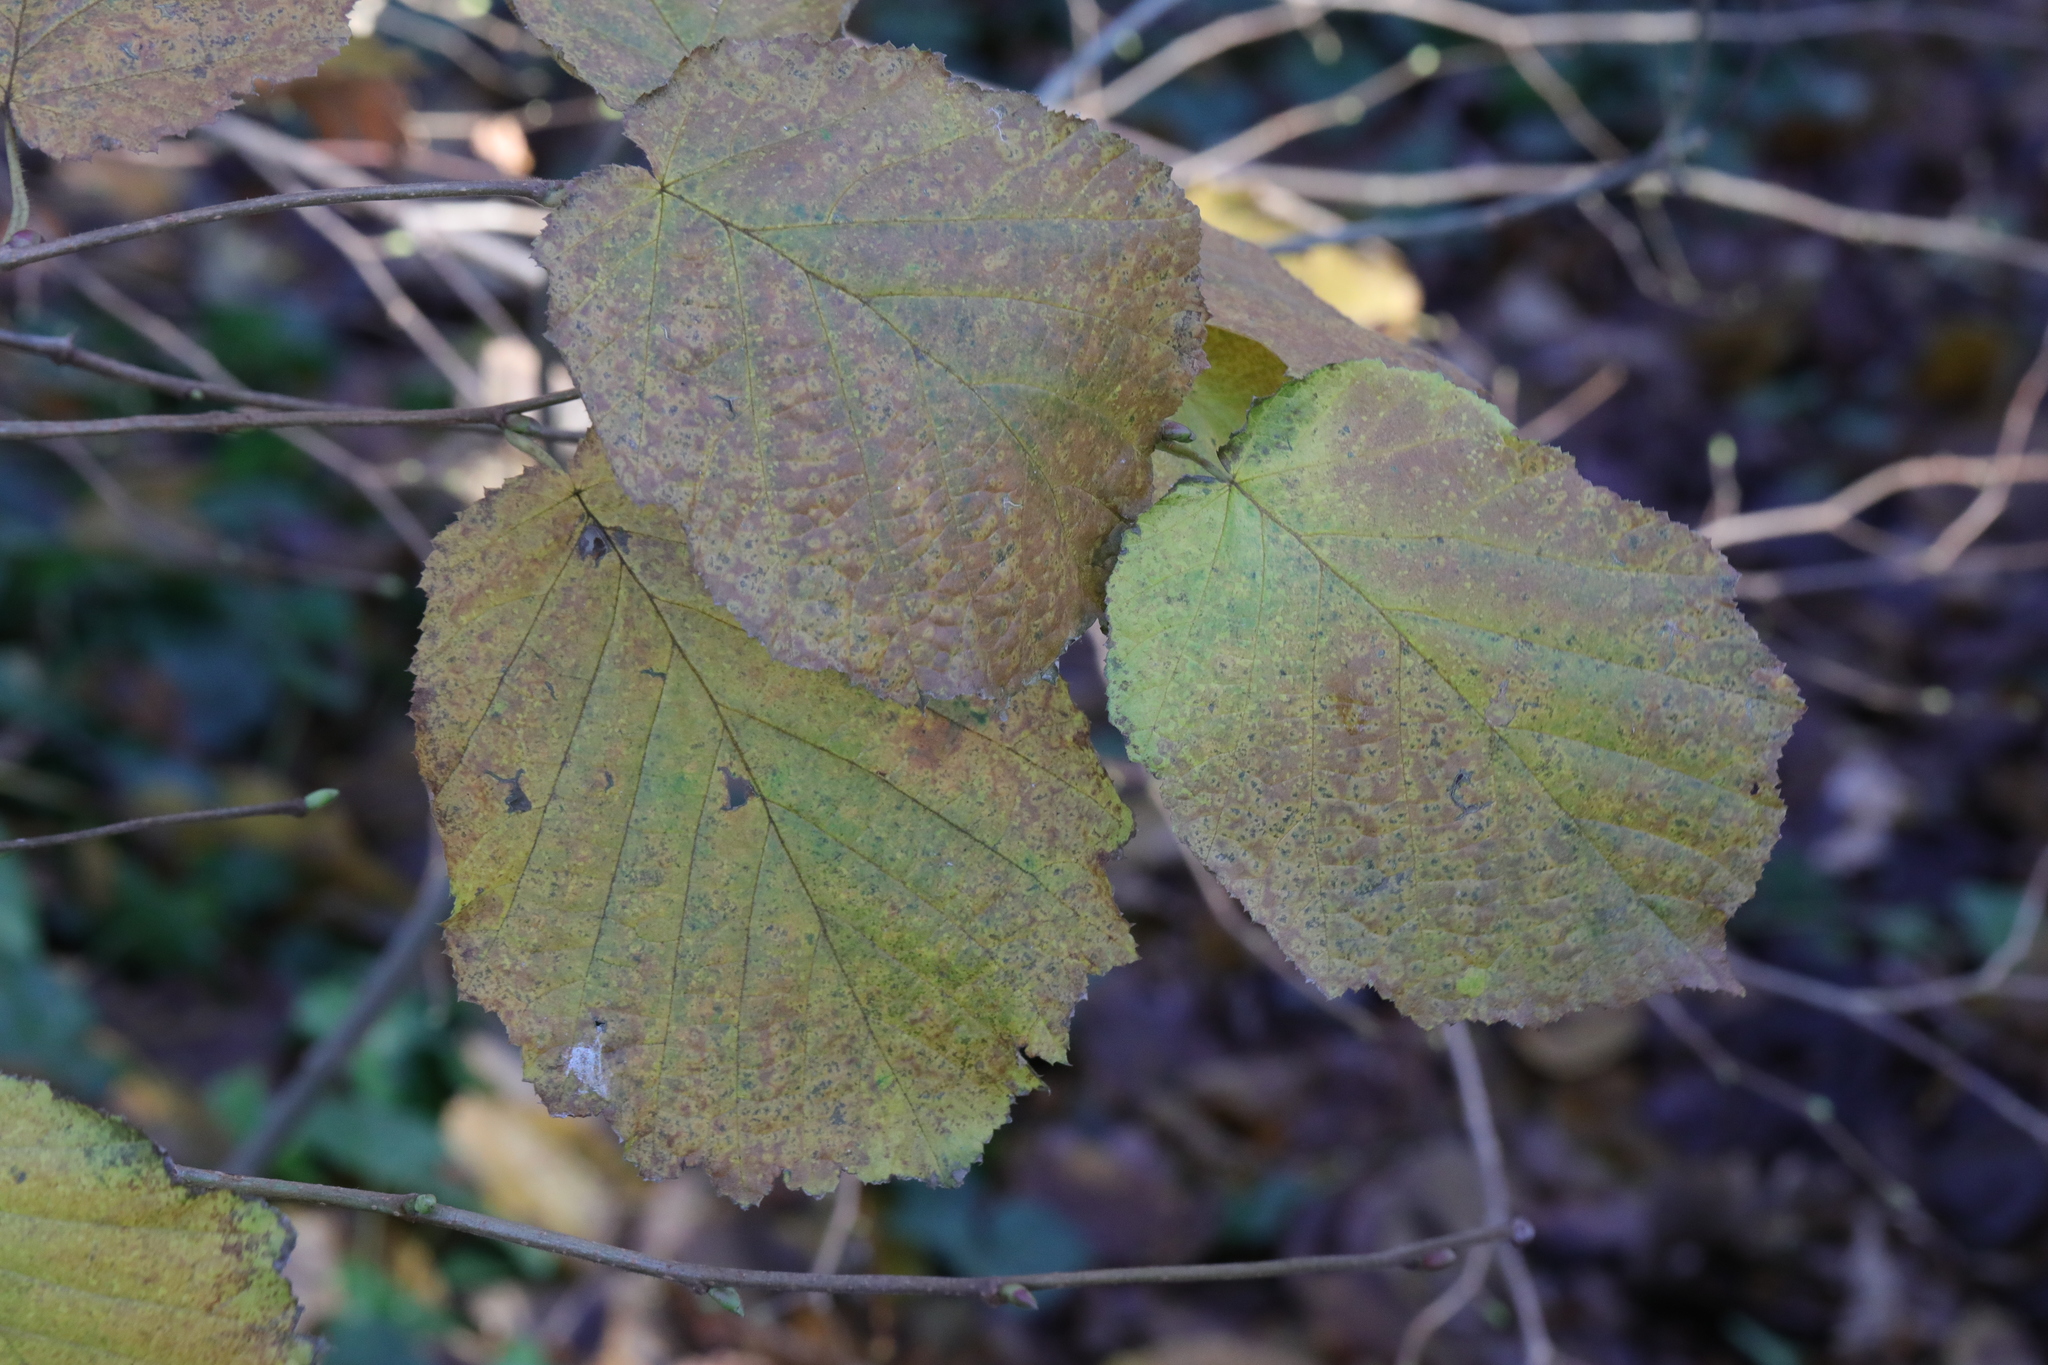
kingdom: Plantae
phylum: Tracheophyta
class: Magnoliopsida
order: Fagales
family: Betulaceae
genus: Corylus
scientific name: Corylus avellana
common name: European hazel
